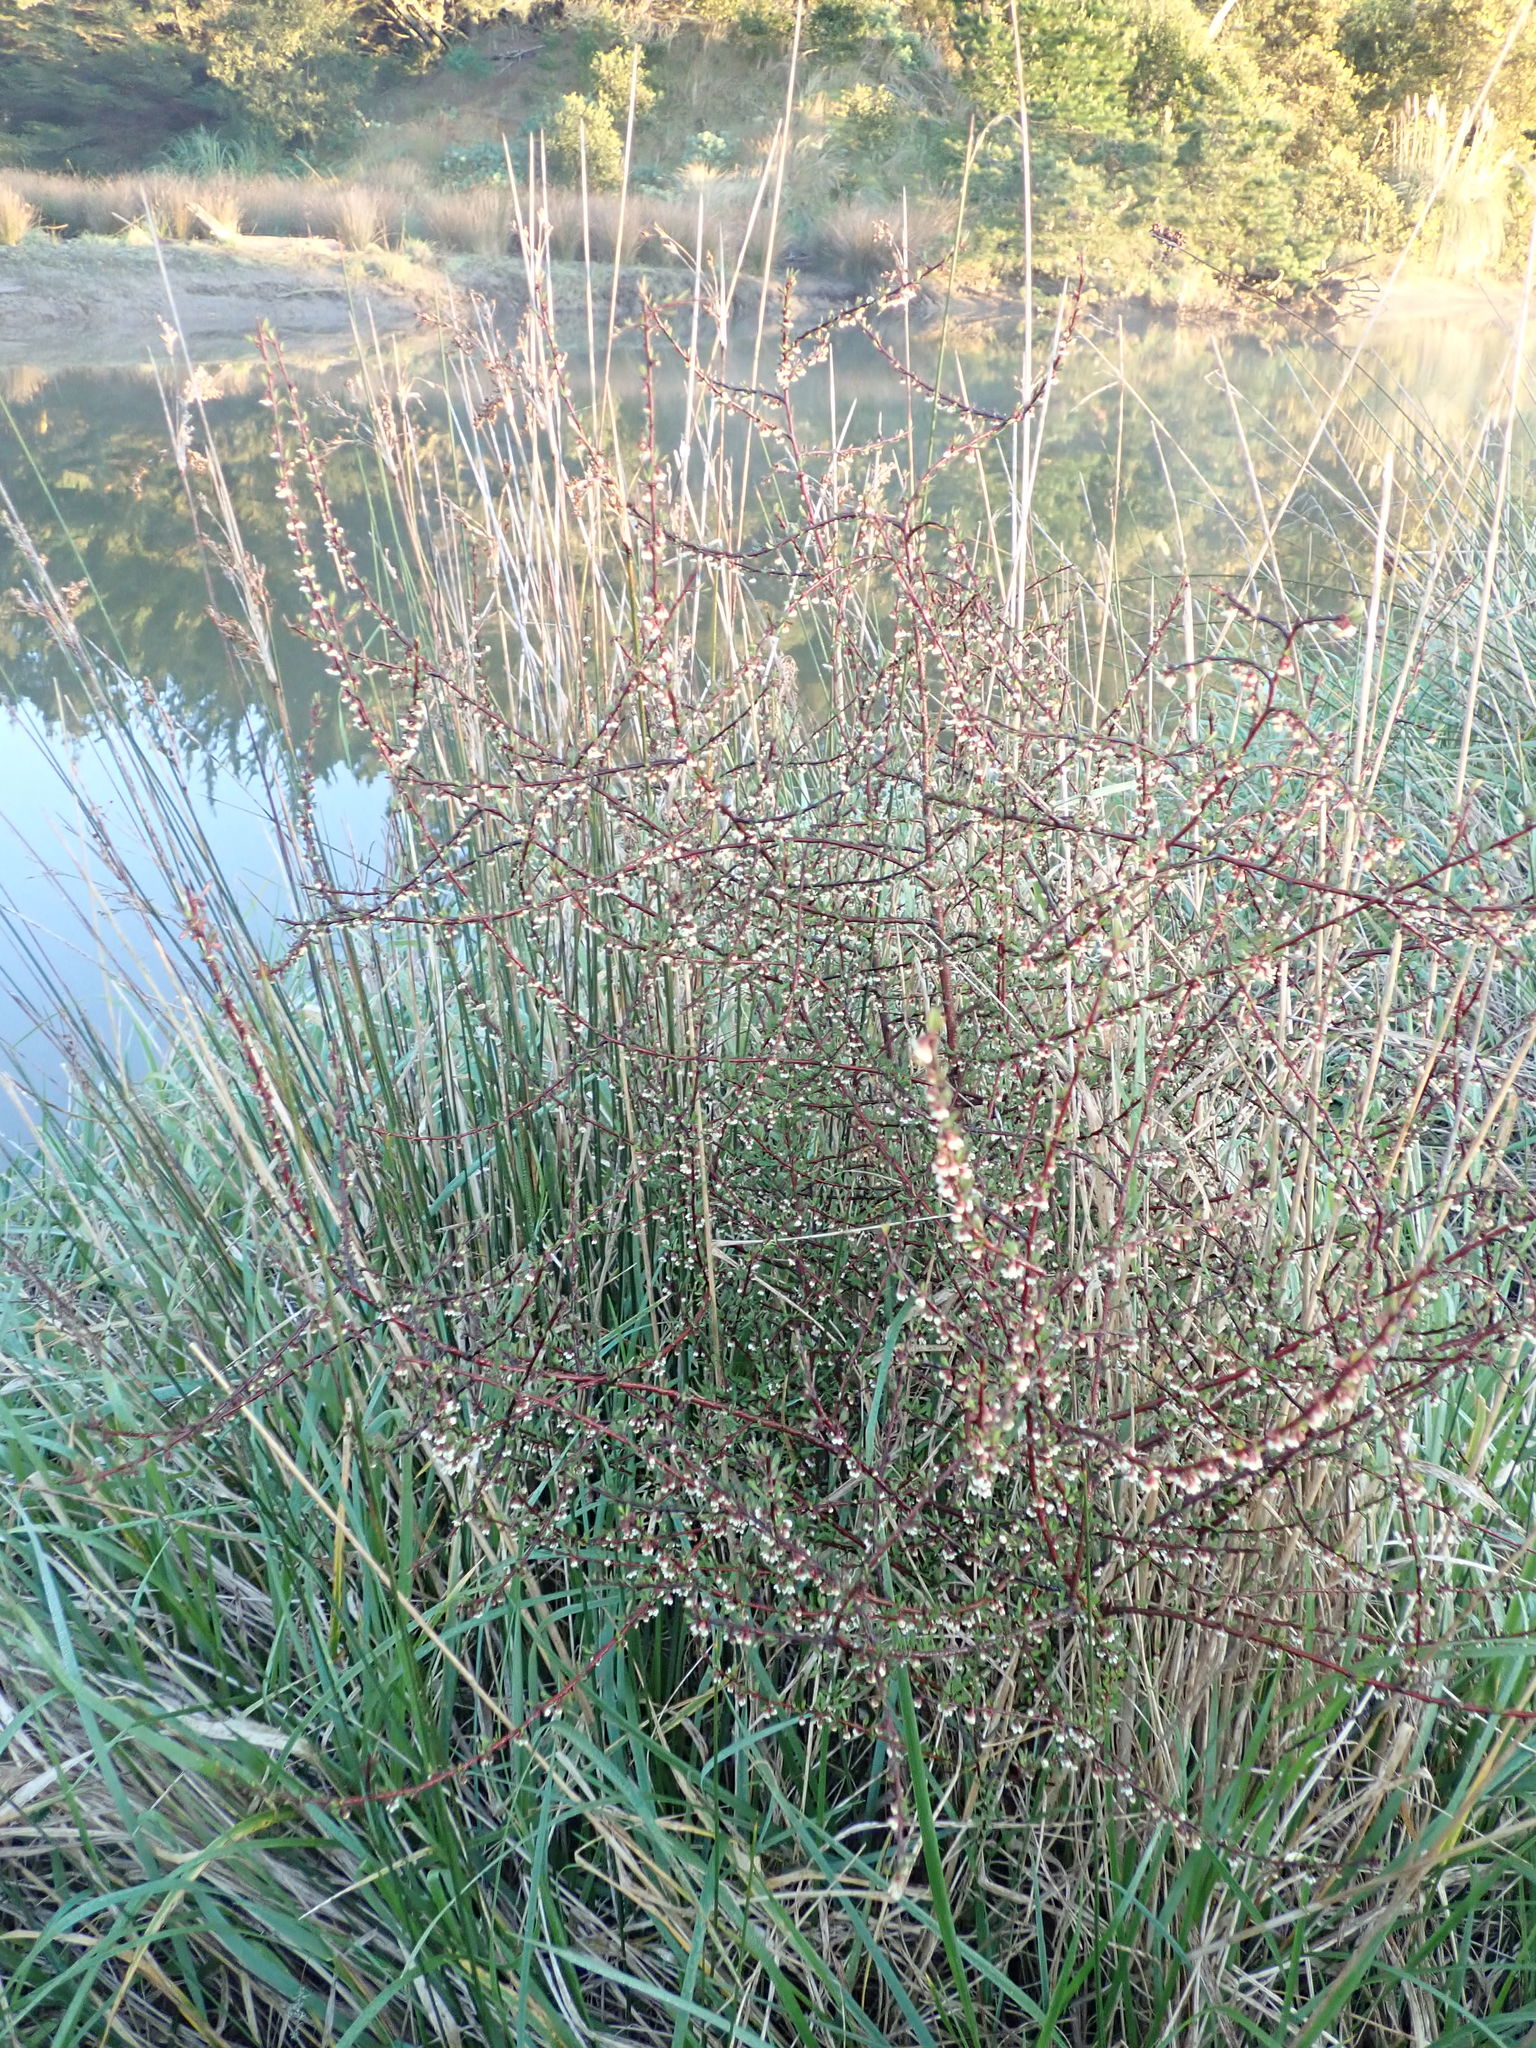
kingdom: Plantae
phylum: Tracheophyta
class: Magnoliopsida
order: Malvales
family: Malvaceae
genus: Plagianthus
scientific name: Plagianthus divaricatus
